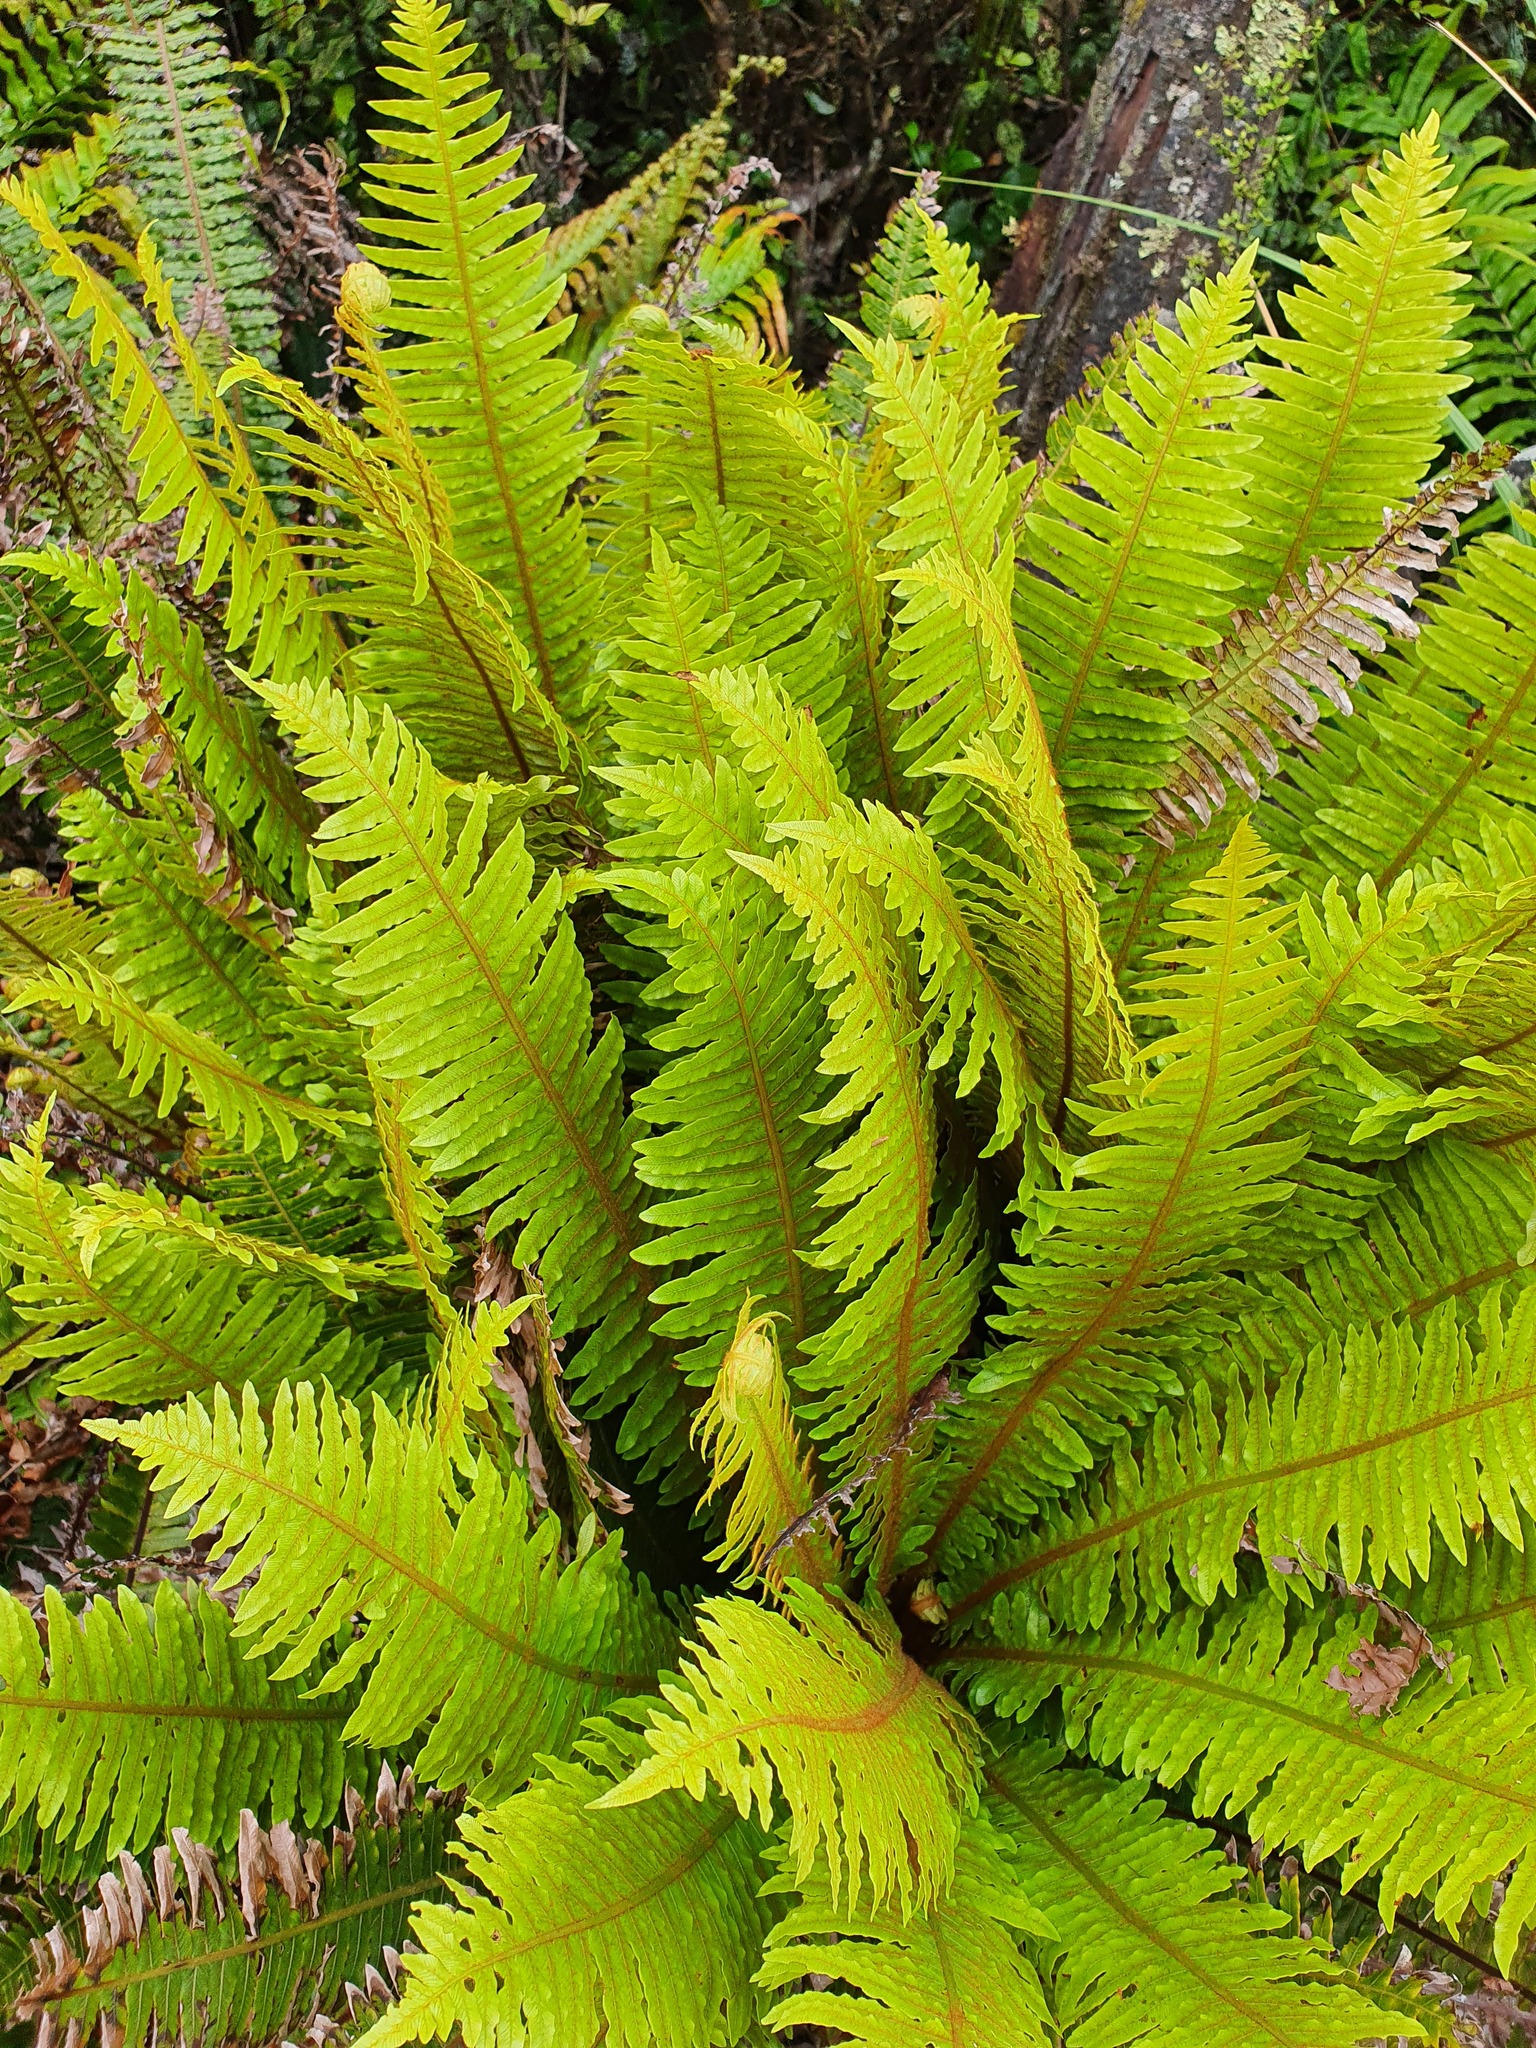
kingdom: Plantae
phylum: Tracheophyta
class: Polypodiopsida
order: Polypodiales
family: Blechnaceae
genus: Lomaria
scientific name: Lomaria discolor
